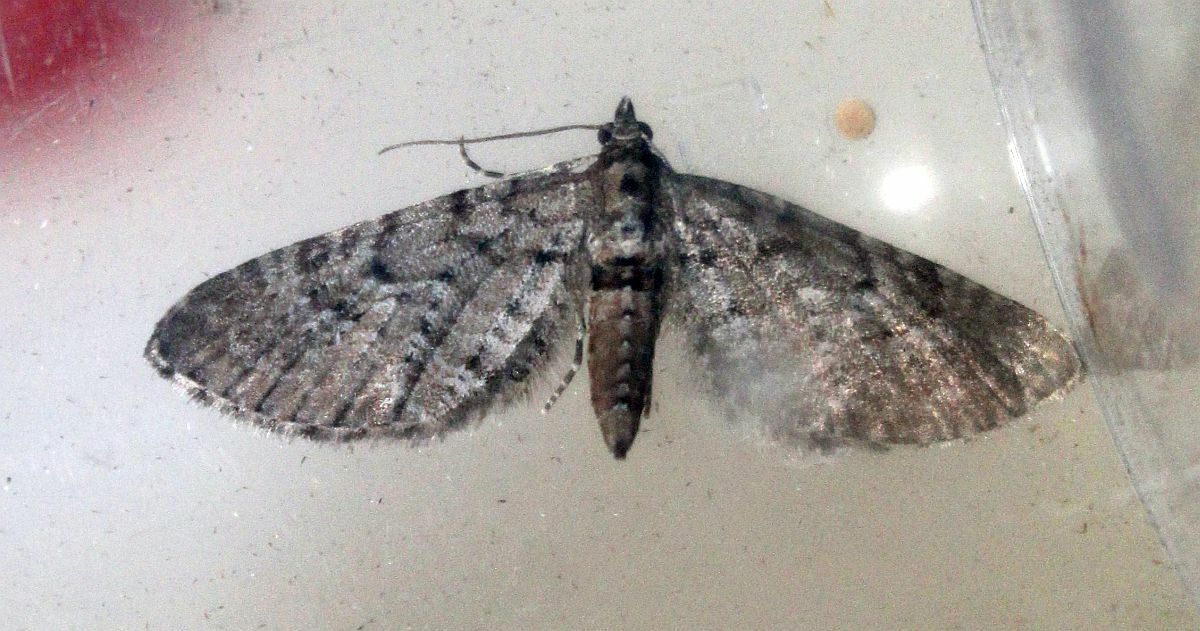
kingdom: Animalia
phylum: Arthropoda
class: Insecta
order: Lepidoptera
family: Geometridae
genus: Eupithecia
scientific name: Eupithecia intricata
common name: Freyers pug
